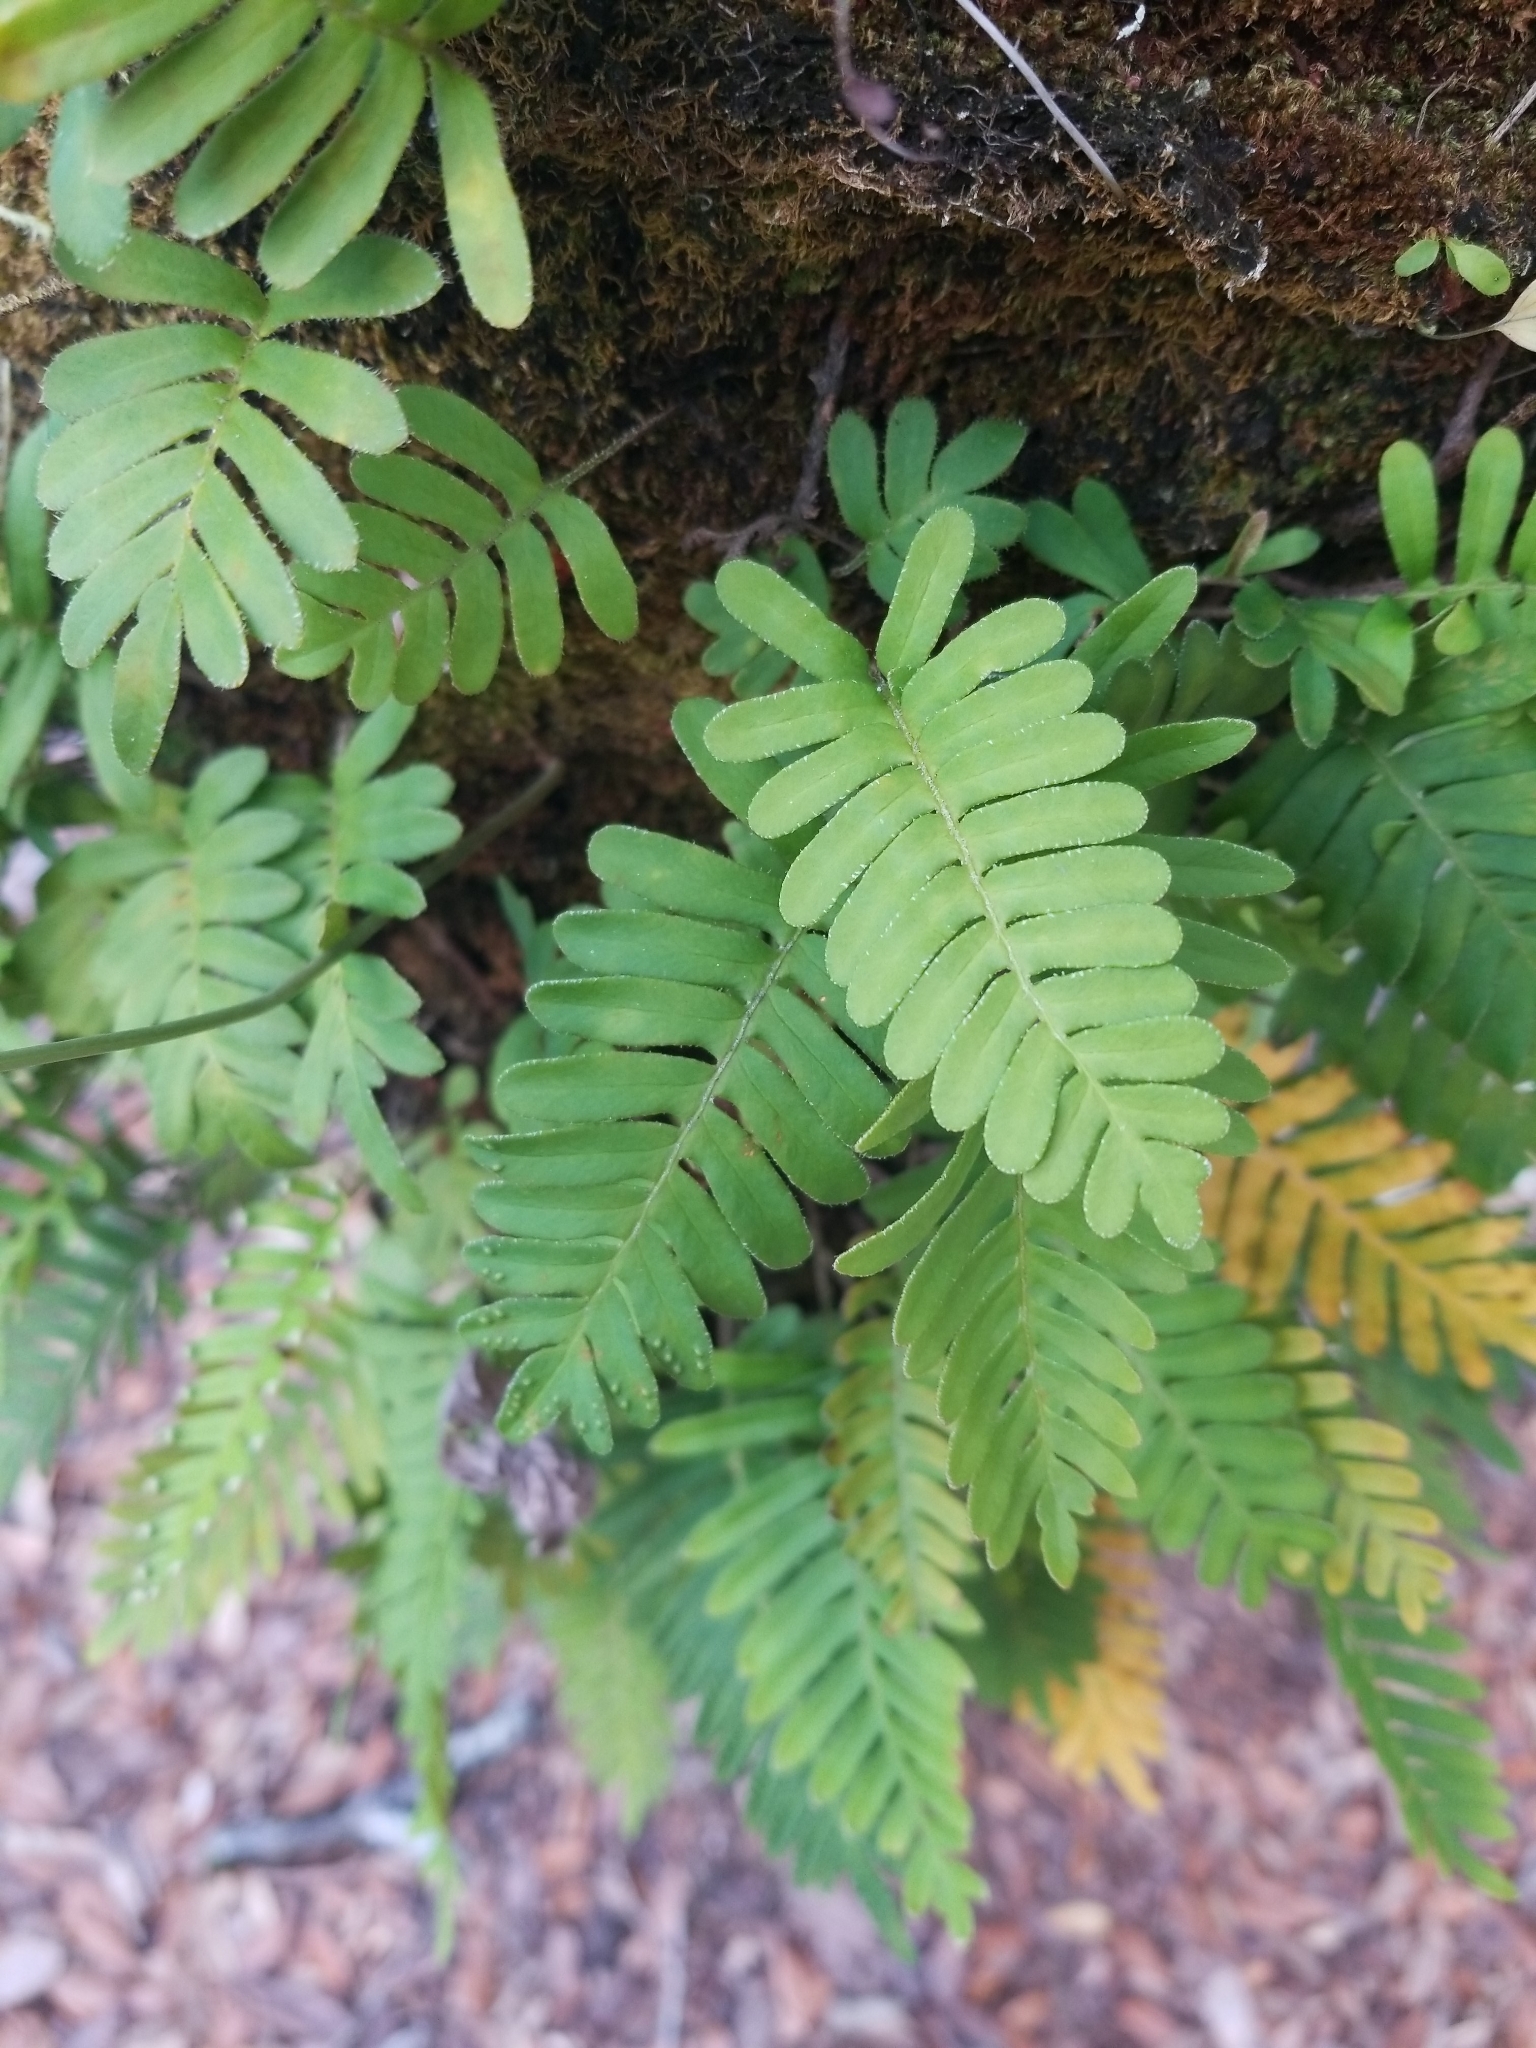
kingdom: Plantae
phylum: Tracheophyta
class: Polypodiopsida
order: Polypodiales
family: Polypodiaceae
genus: Pleopeltis
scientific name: Pleopeltis michauxiana
